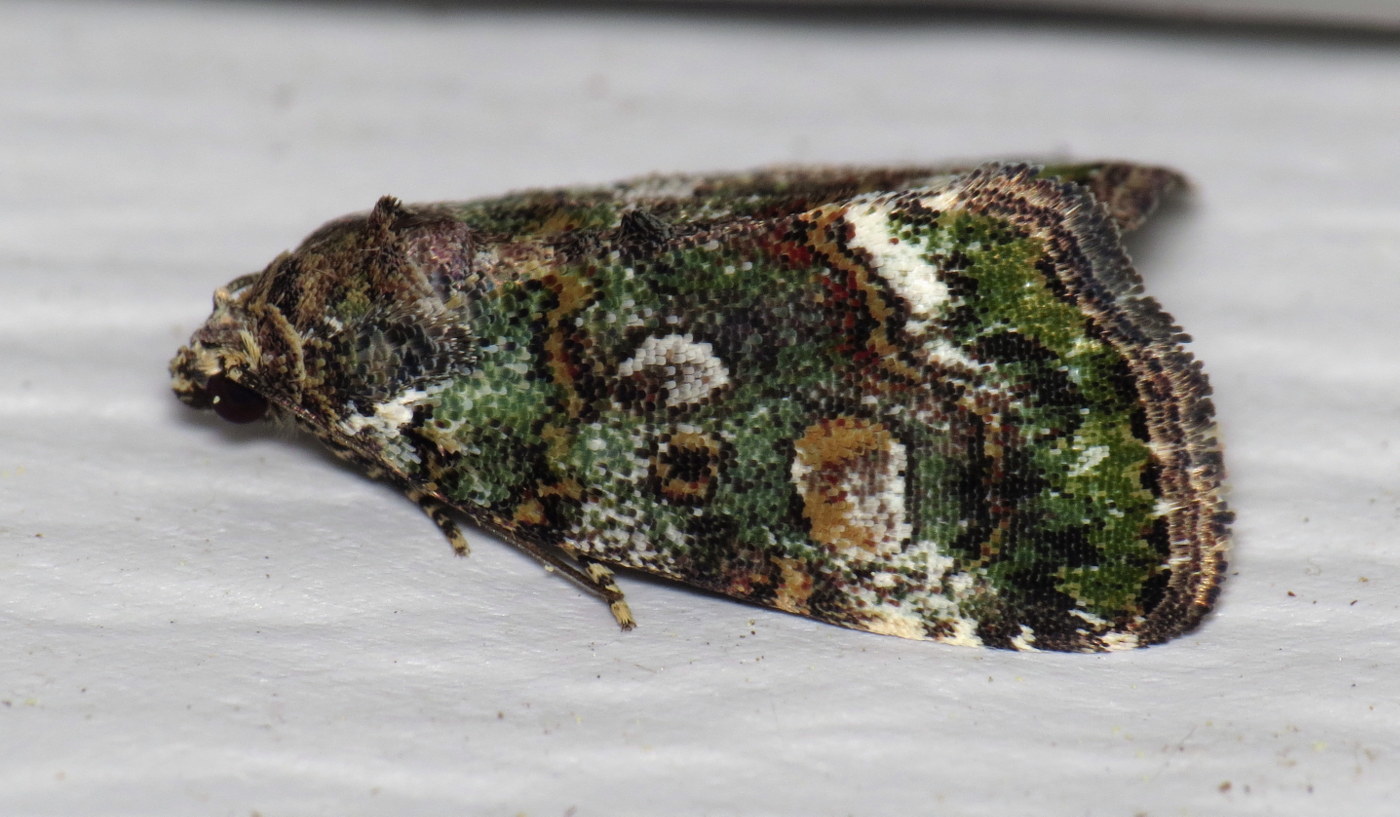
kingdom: Animalia
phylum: Arthropoda
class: Insecta
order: Lepidoptera
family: Noctuidae
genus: Lithacodia
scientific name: Lithacodia musta
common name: Small mossy glyph
